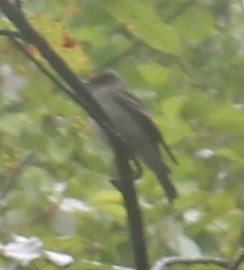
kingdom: Animalia
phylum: Chordata
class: Aves
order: Passeriformes
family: Tyrannidae
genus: Contopus
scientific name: Contopus virens
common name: Eastern wood-pewee
